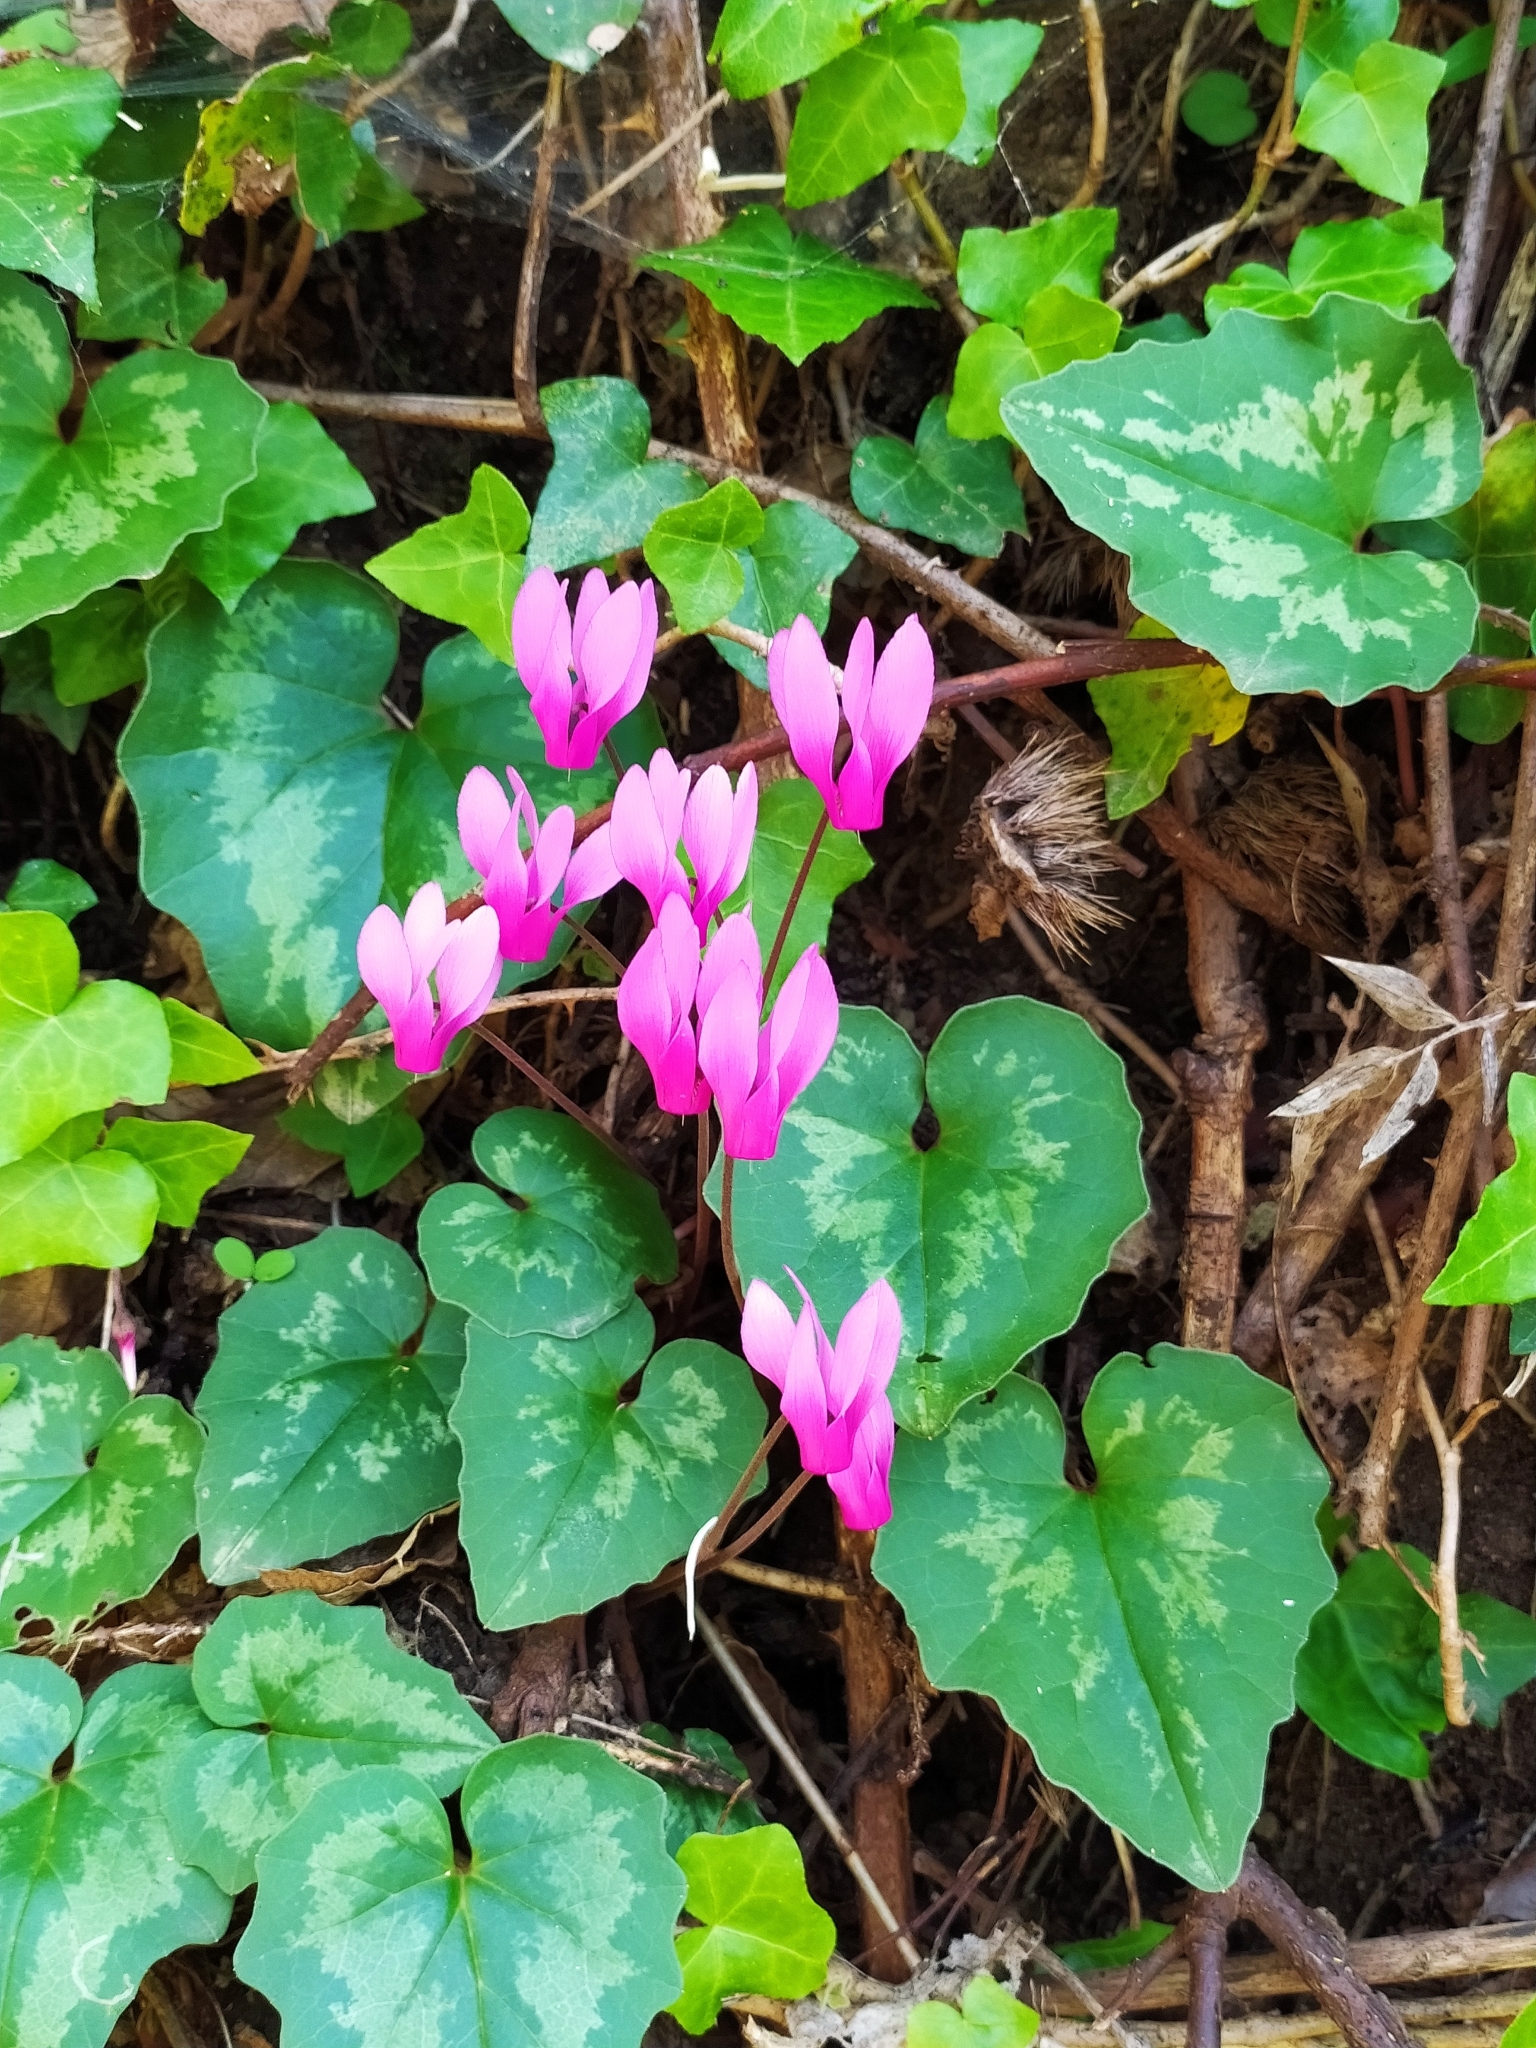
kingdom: Plantae
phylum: Tracheophyta
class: Magnoliopsida
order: Ericales
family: Primulaceae
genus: Cyclamen
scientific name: Cyclamen repandum
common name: Spring sowbread
